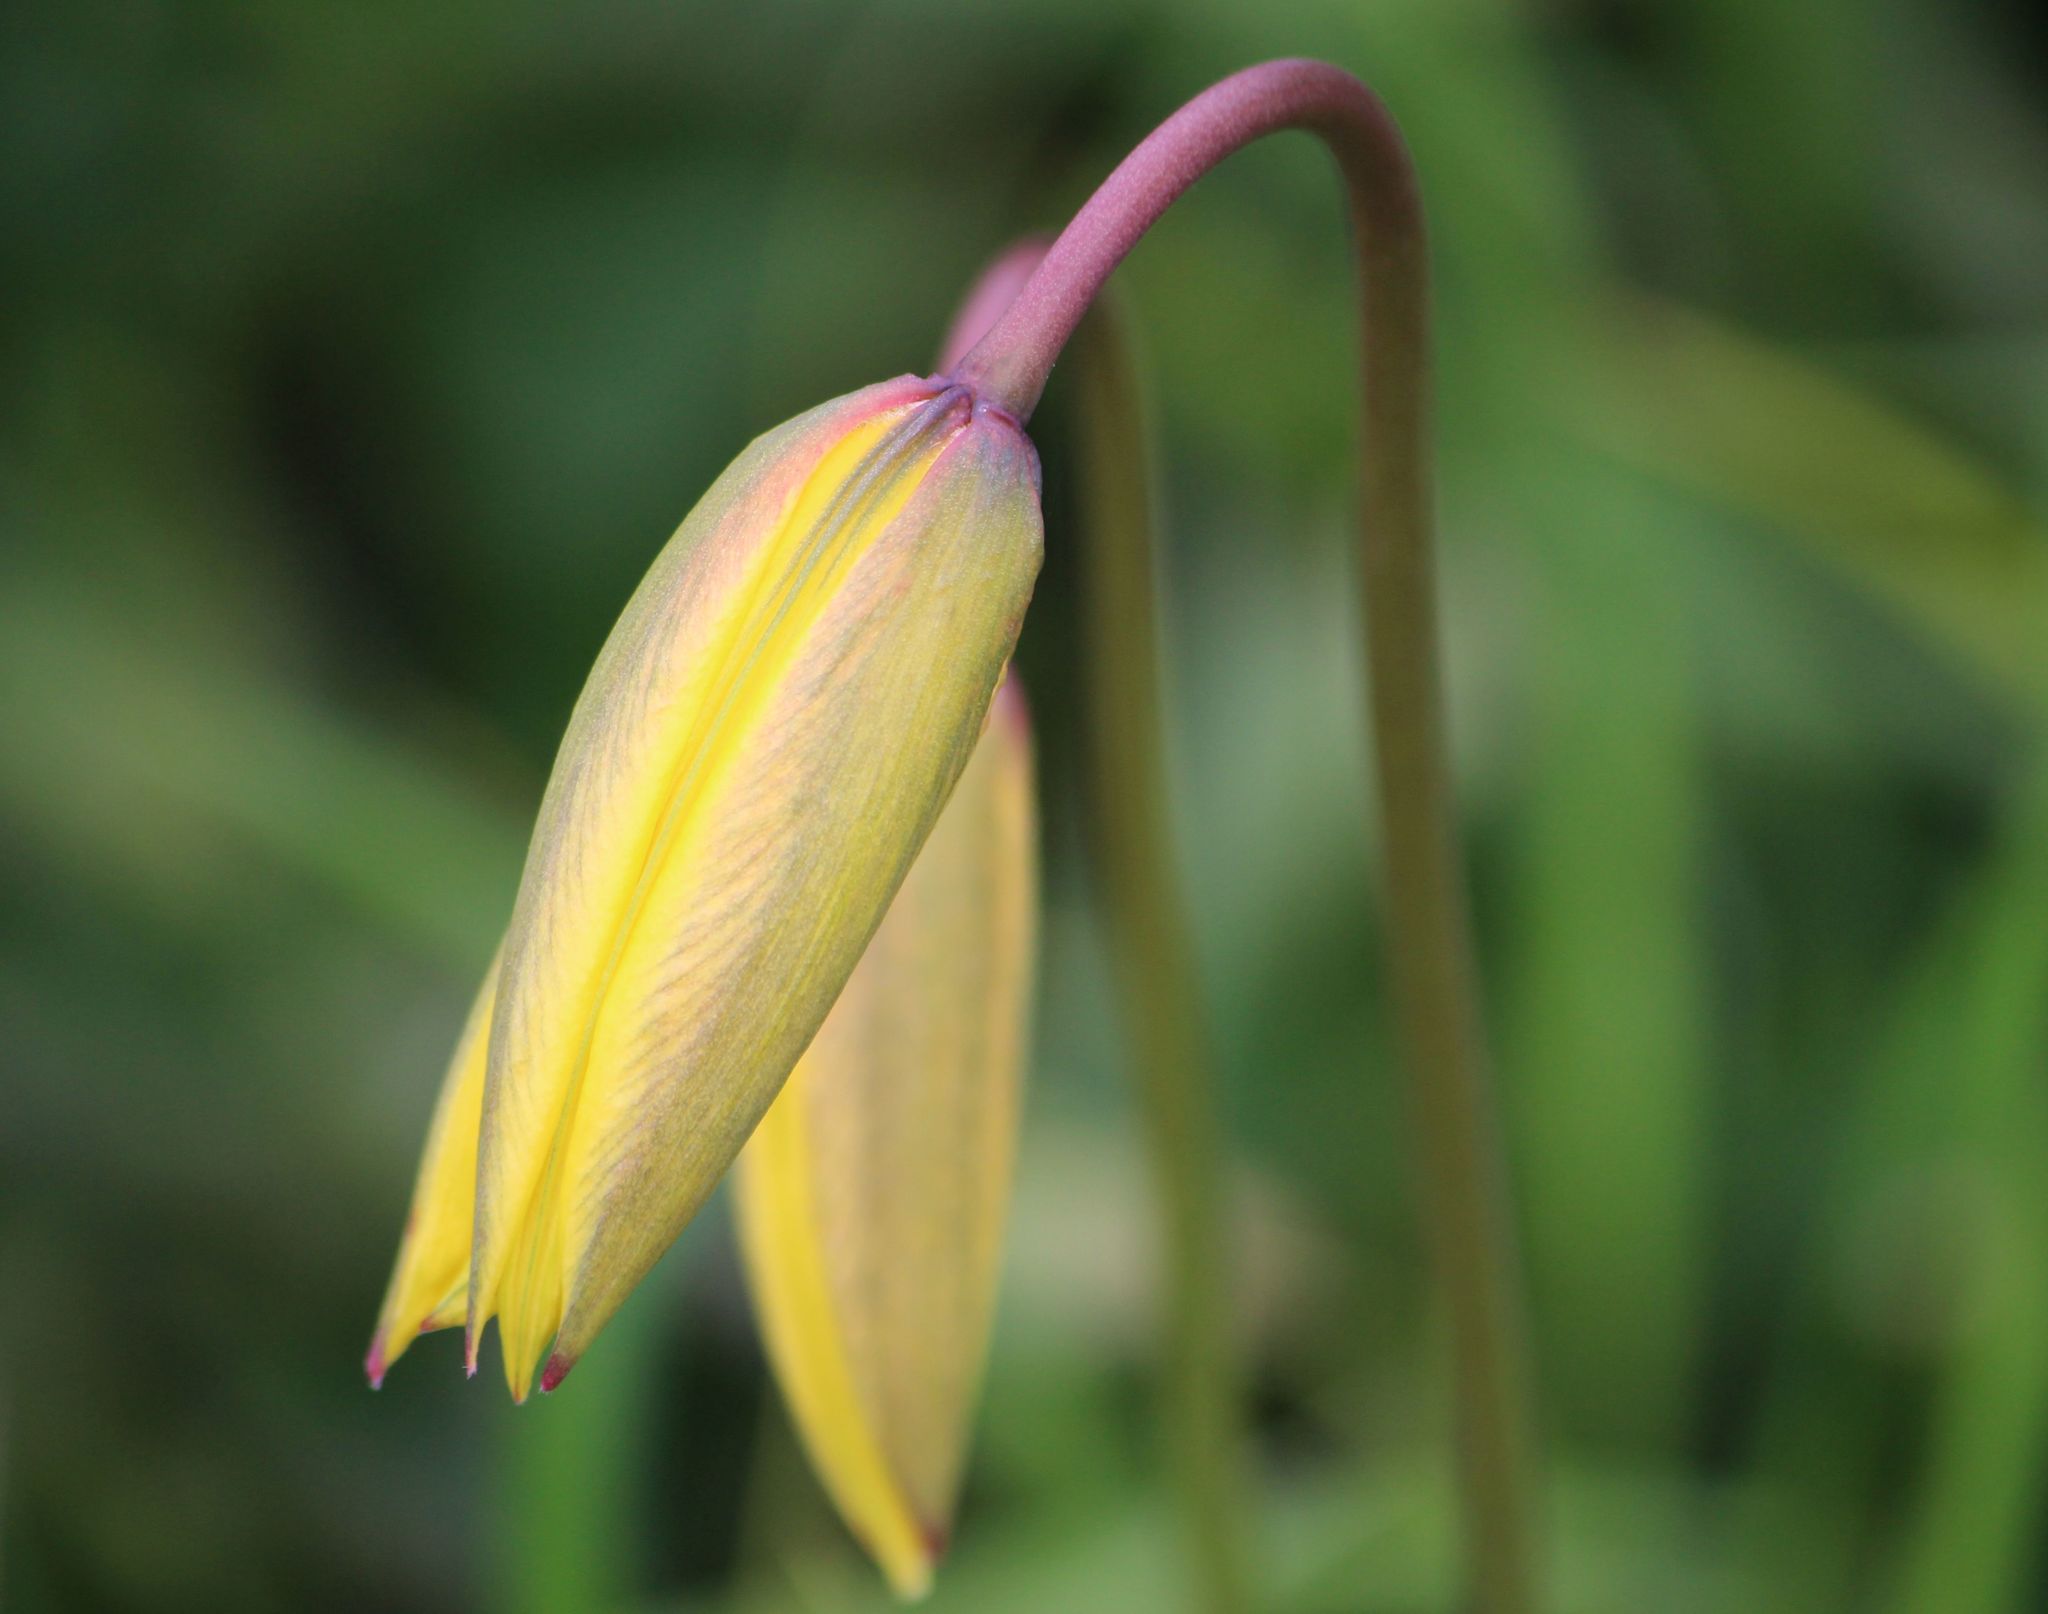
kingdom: Plantae
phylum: Tracheophyta
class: Liliopsida
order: Liliales
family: Liliaceae
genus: Tulipa
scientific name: Tulipa sylvestris
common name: Wild tulip
